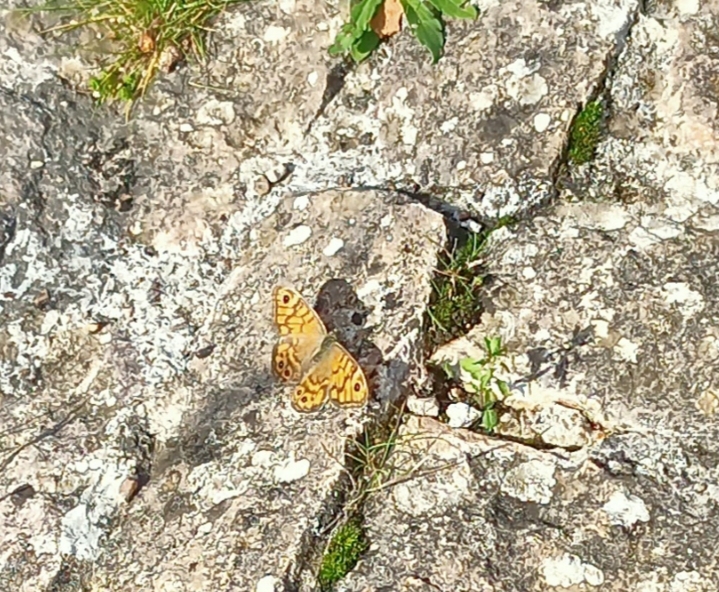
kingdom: Animalia
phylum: Arthropoda
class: Insecta
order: Lepidoptera
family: Nymphalidae
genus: Pararge
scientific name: Pararge Lasiommata megera
